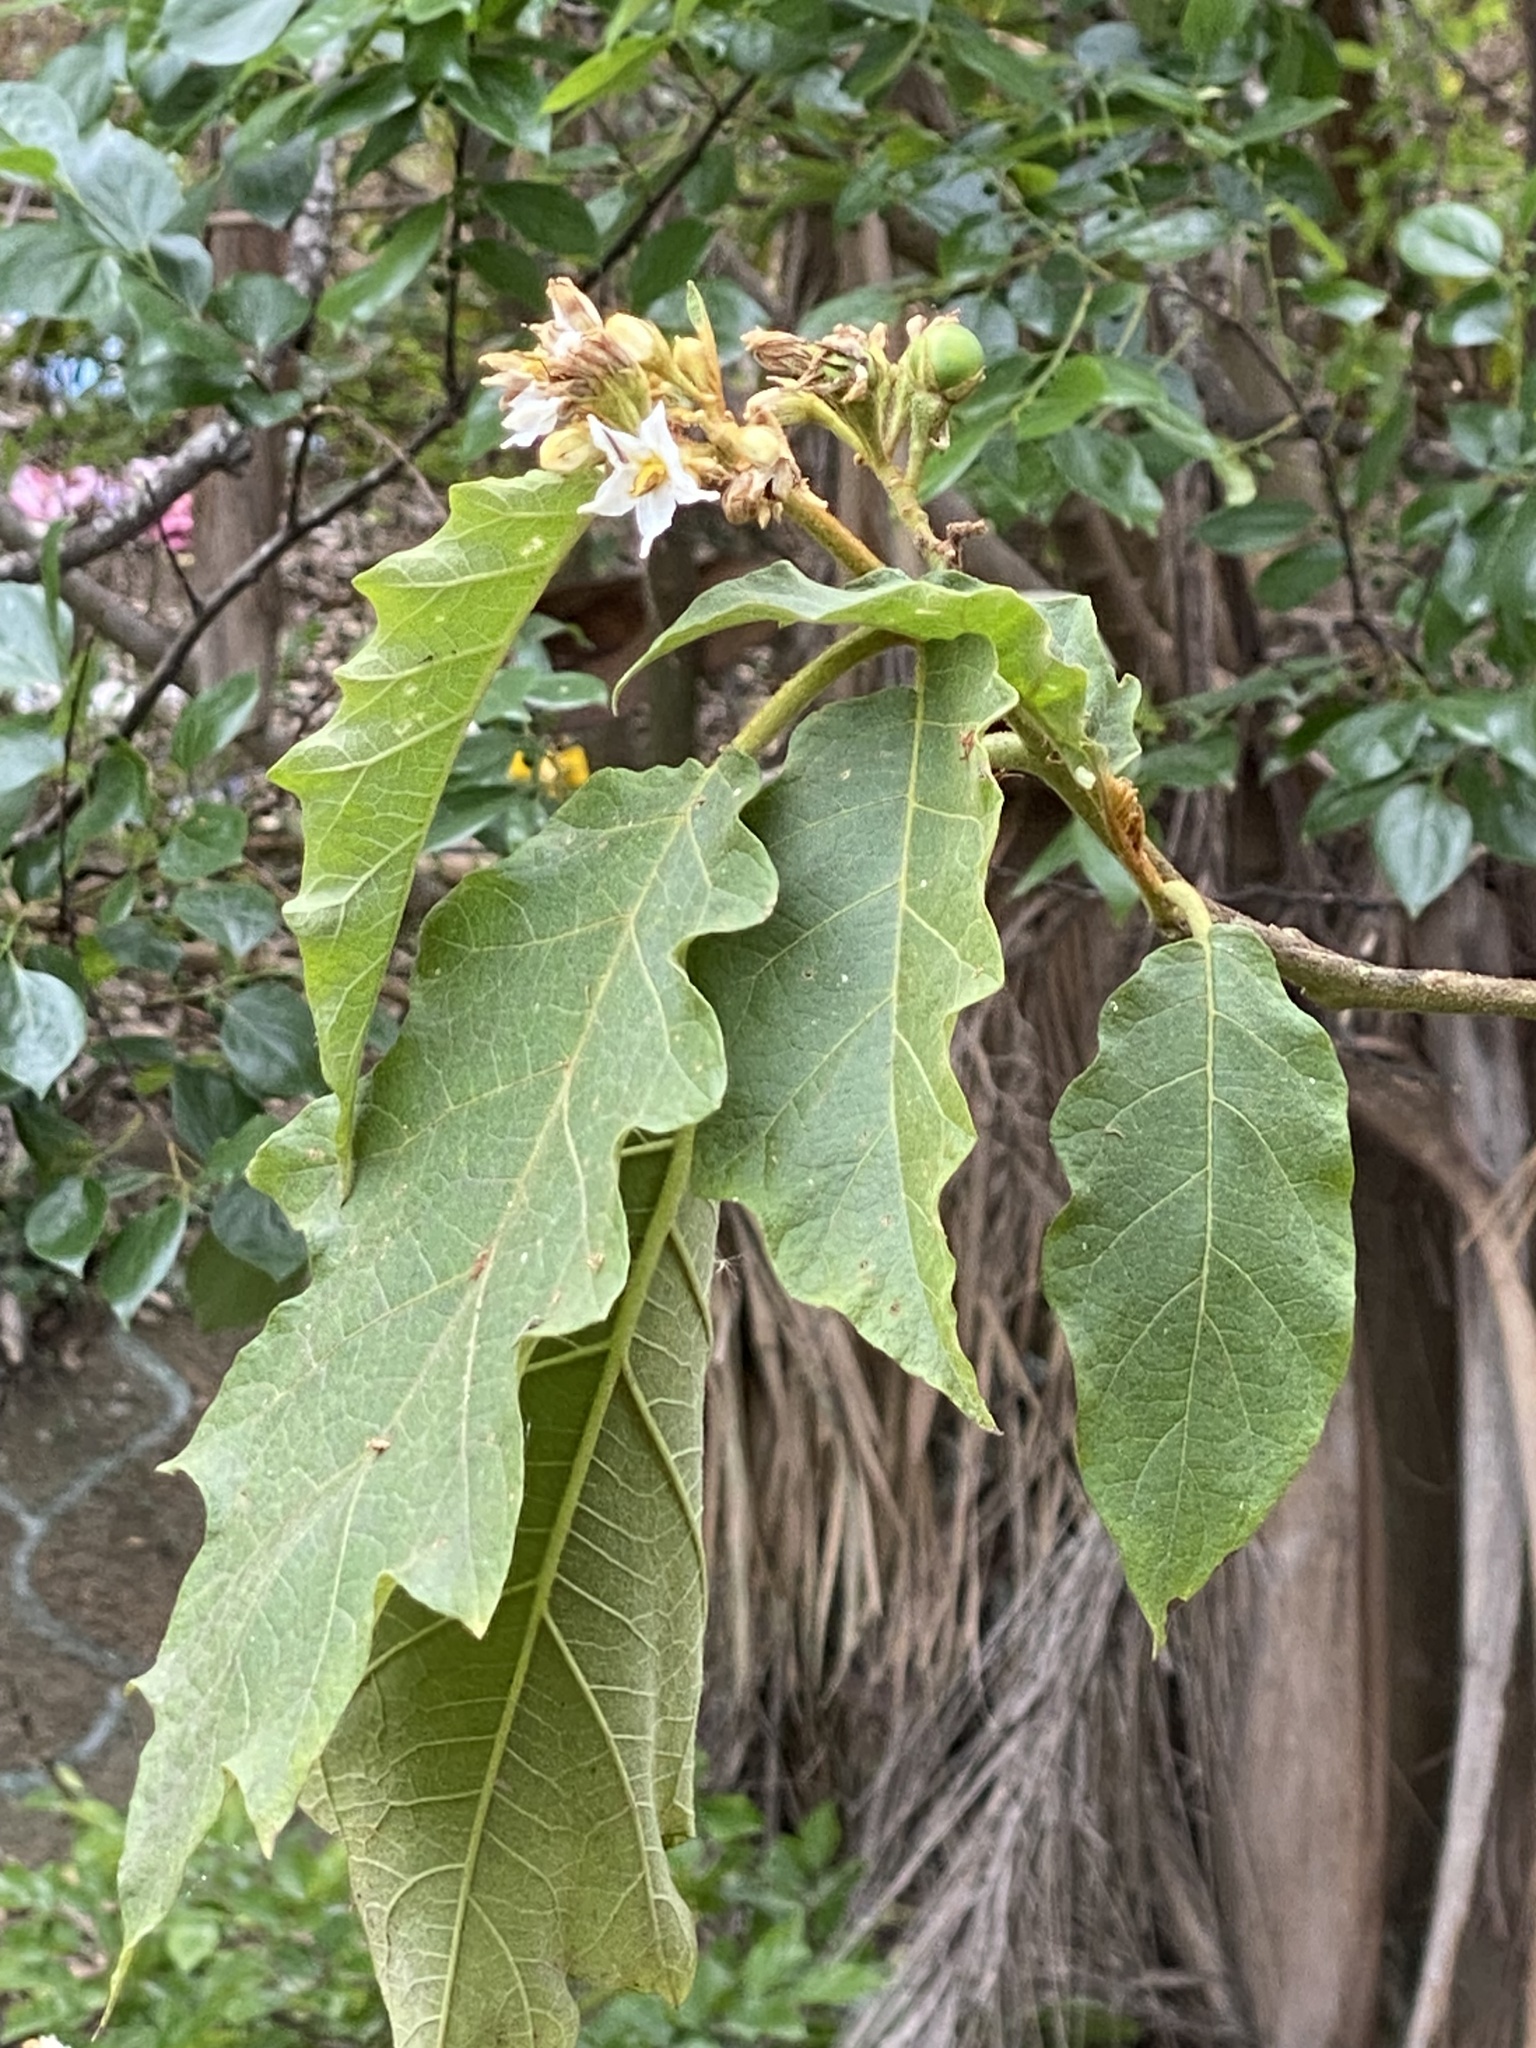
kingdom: Plantae
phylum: Tracheophyta
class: Magnoliopsida
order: Solanales
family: Solanaceae
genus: Solanum
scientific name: Solanum chrysotrichum
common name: Nightshade
